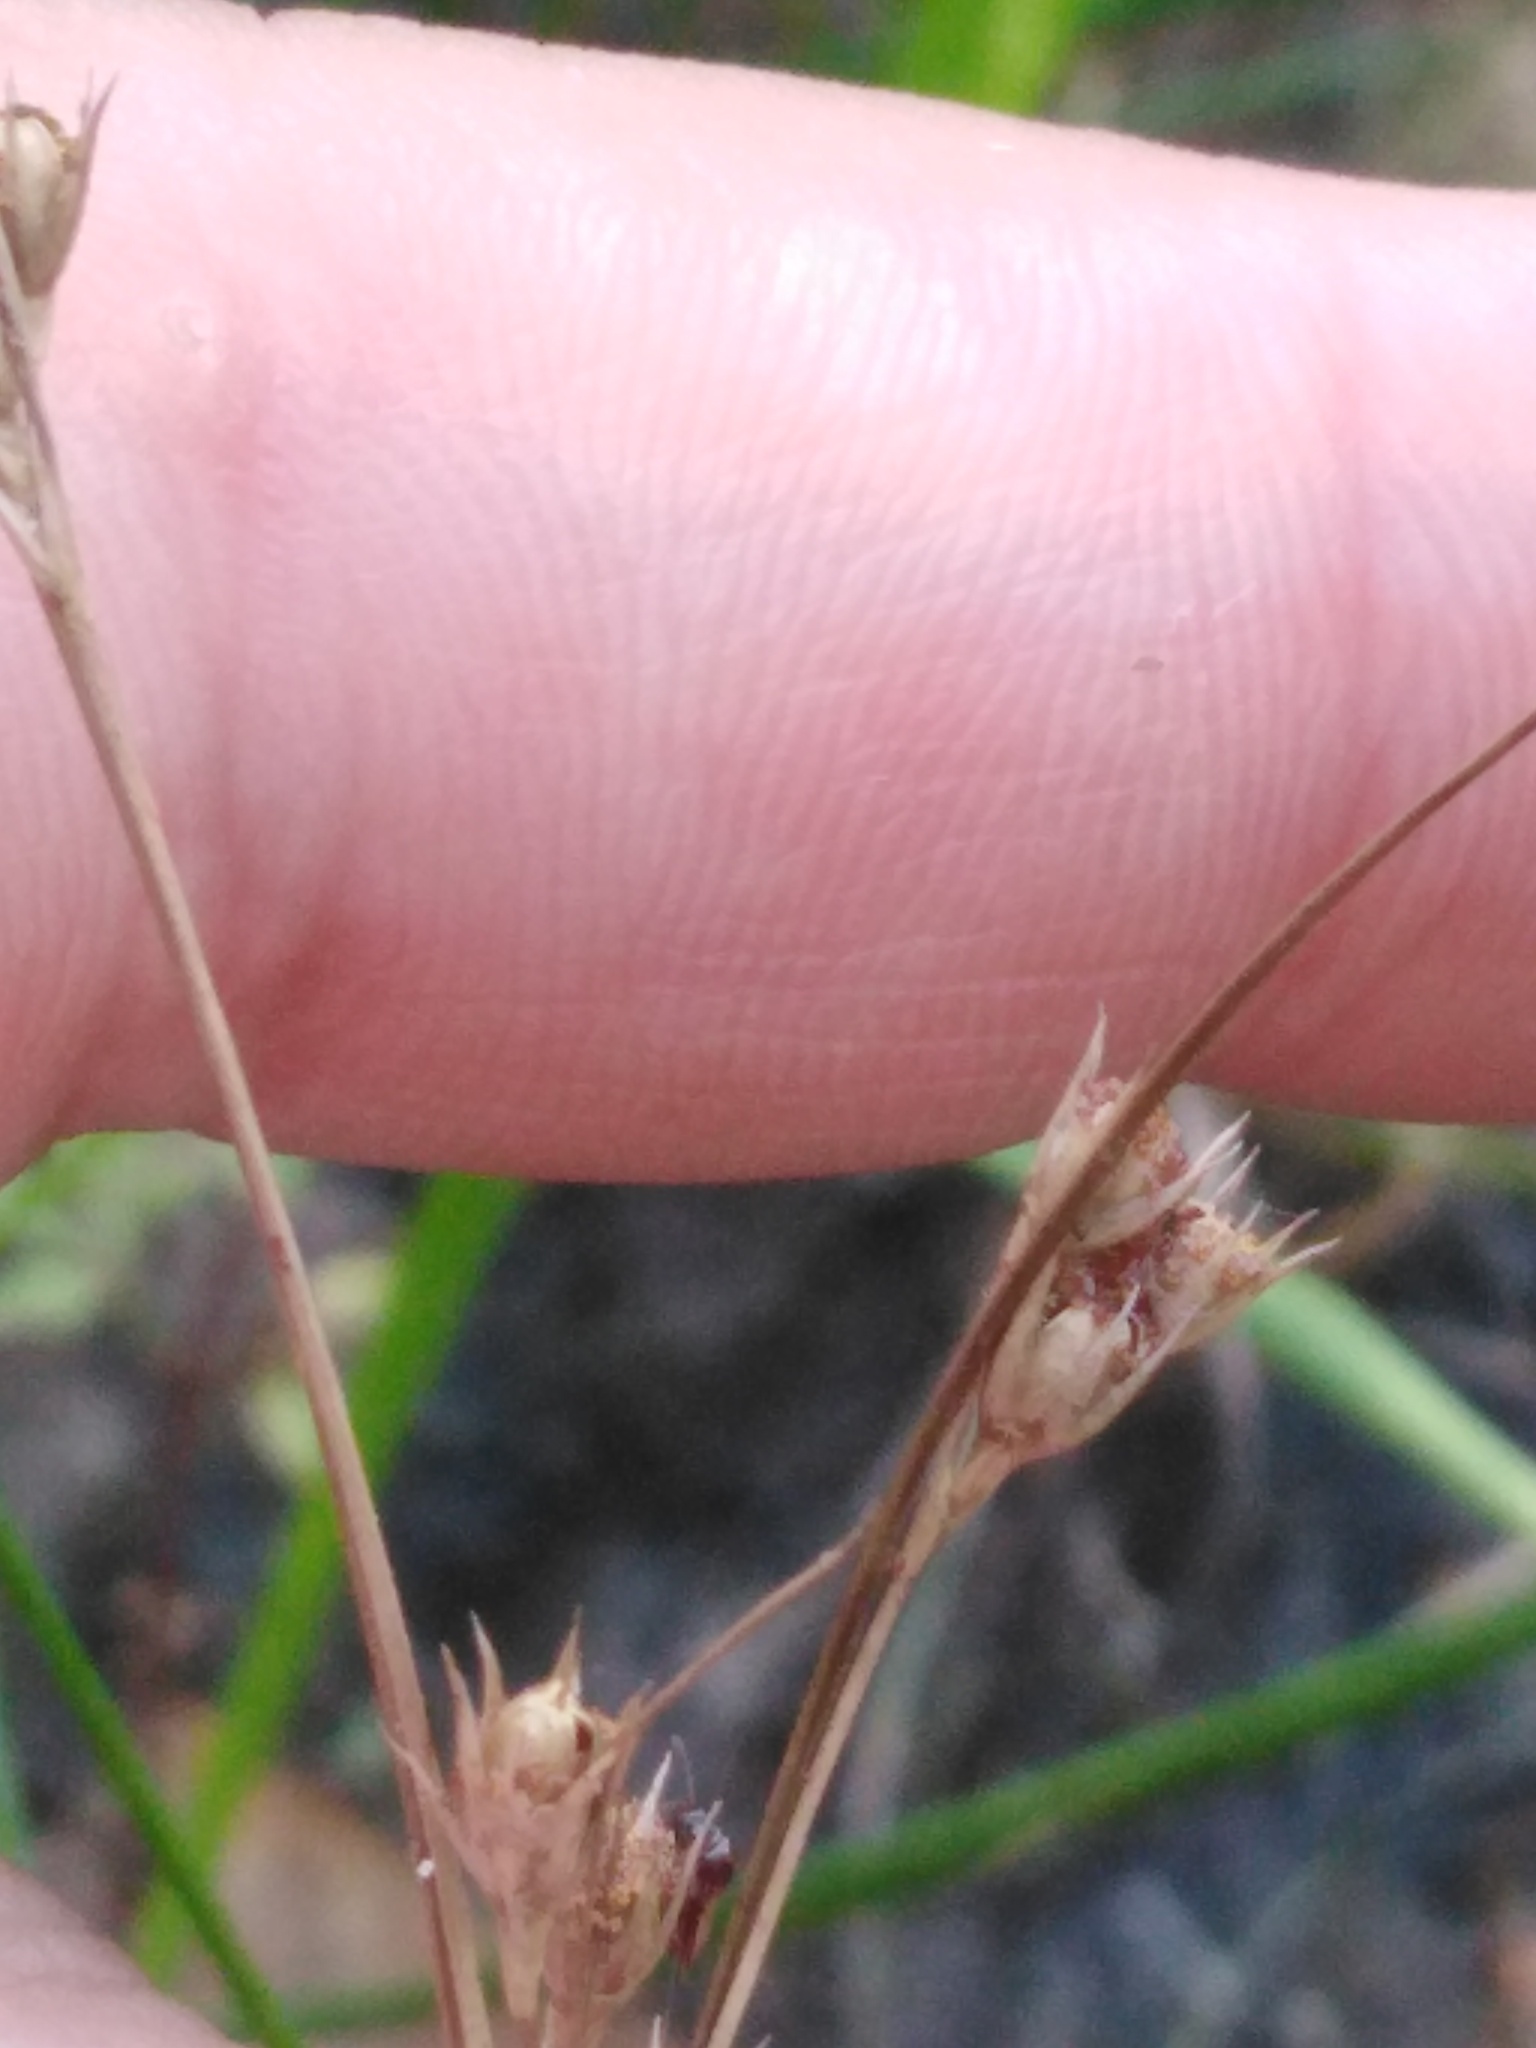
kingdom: Plantae
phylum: Tracheophyta
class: Liliopsida
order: Poales
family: Juncaceae
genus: Juncus
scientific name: Juncus tenuis
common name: Slender rush
